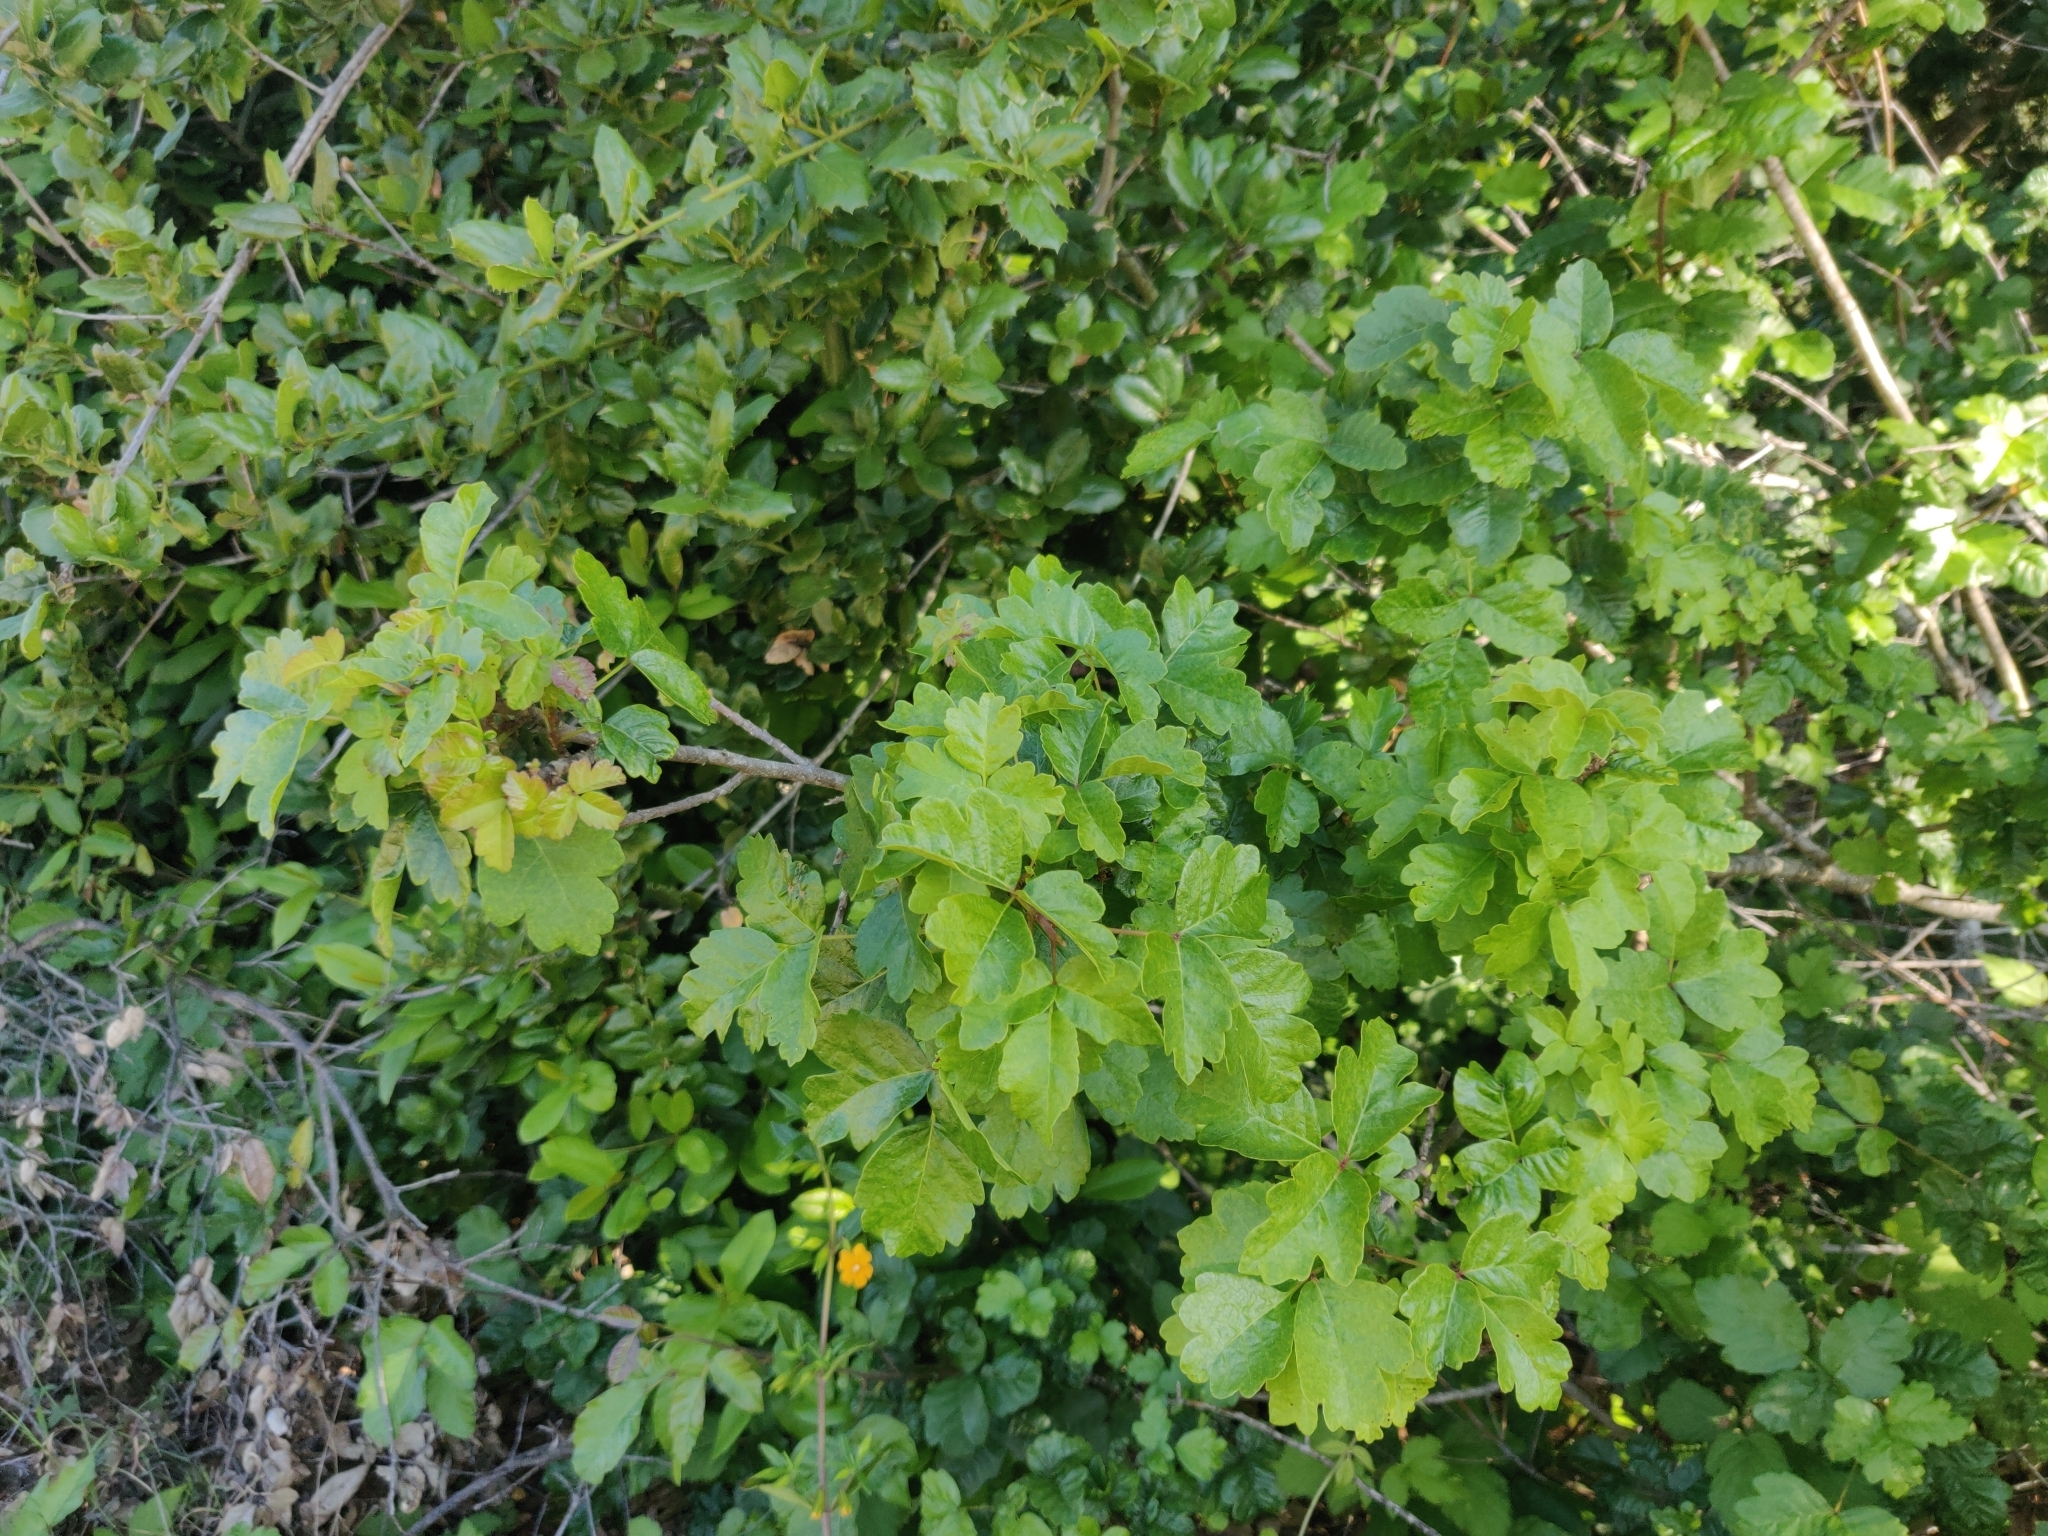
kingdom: Plantae
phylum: Tracheophyta
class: Magnoliopsida
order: Sapindales
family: Anacardiaceae
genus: Toxicodendron
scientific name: Toxicodendron diversilobum
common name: Pacific poison-oak
